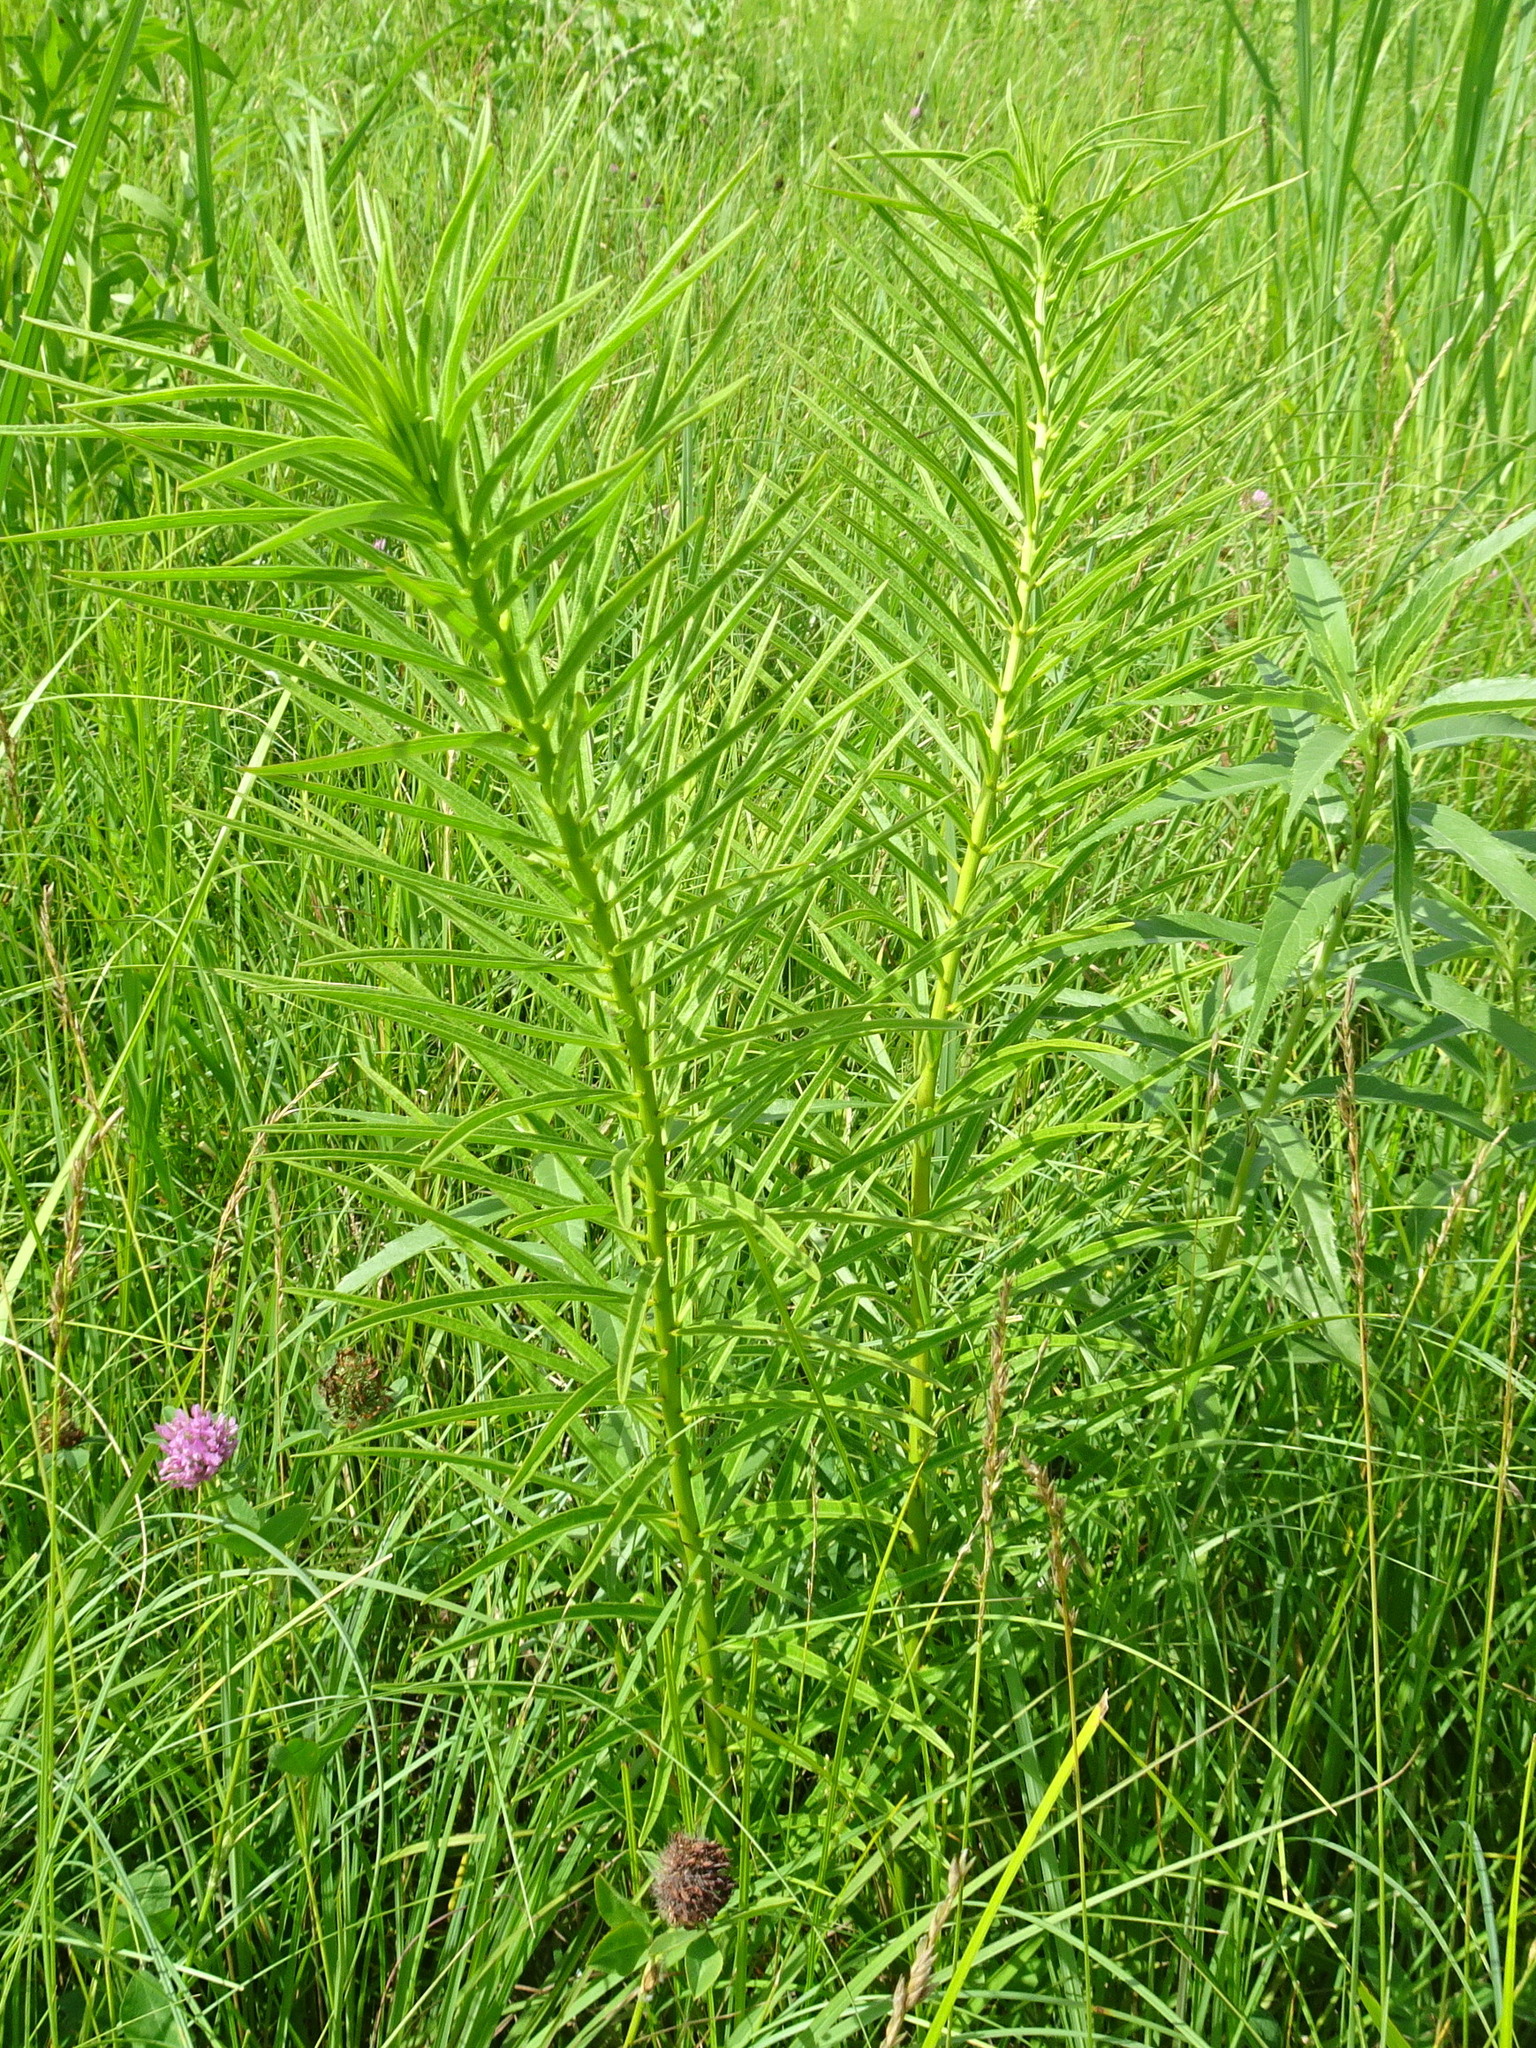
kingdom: Plantae
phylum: Tracheophyta
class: Magnoliopsida
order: Gentianales
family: Apocynaceae
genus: Asclepias
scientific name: Asclepias hirtella
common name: Prairie milkweed
